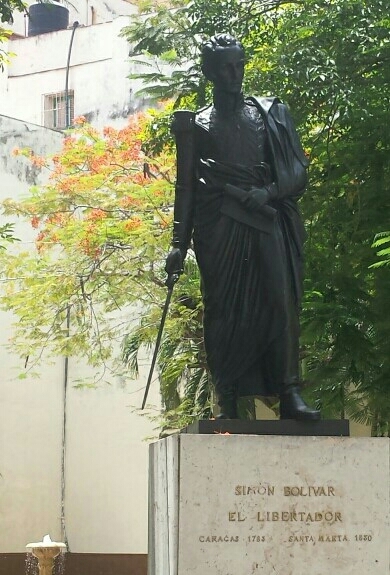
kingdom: Plantae
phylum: Tracheophyta
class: Magnoliopsida
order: Fabales
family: Fabaceae
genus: Delonix
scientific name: Delonix regia
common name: Royal poinciana
